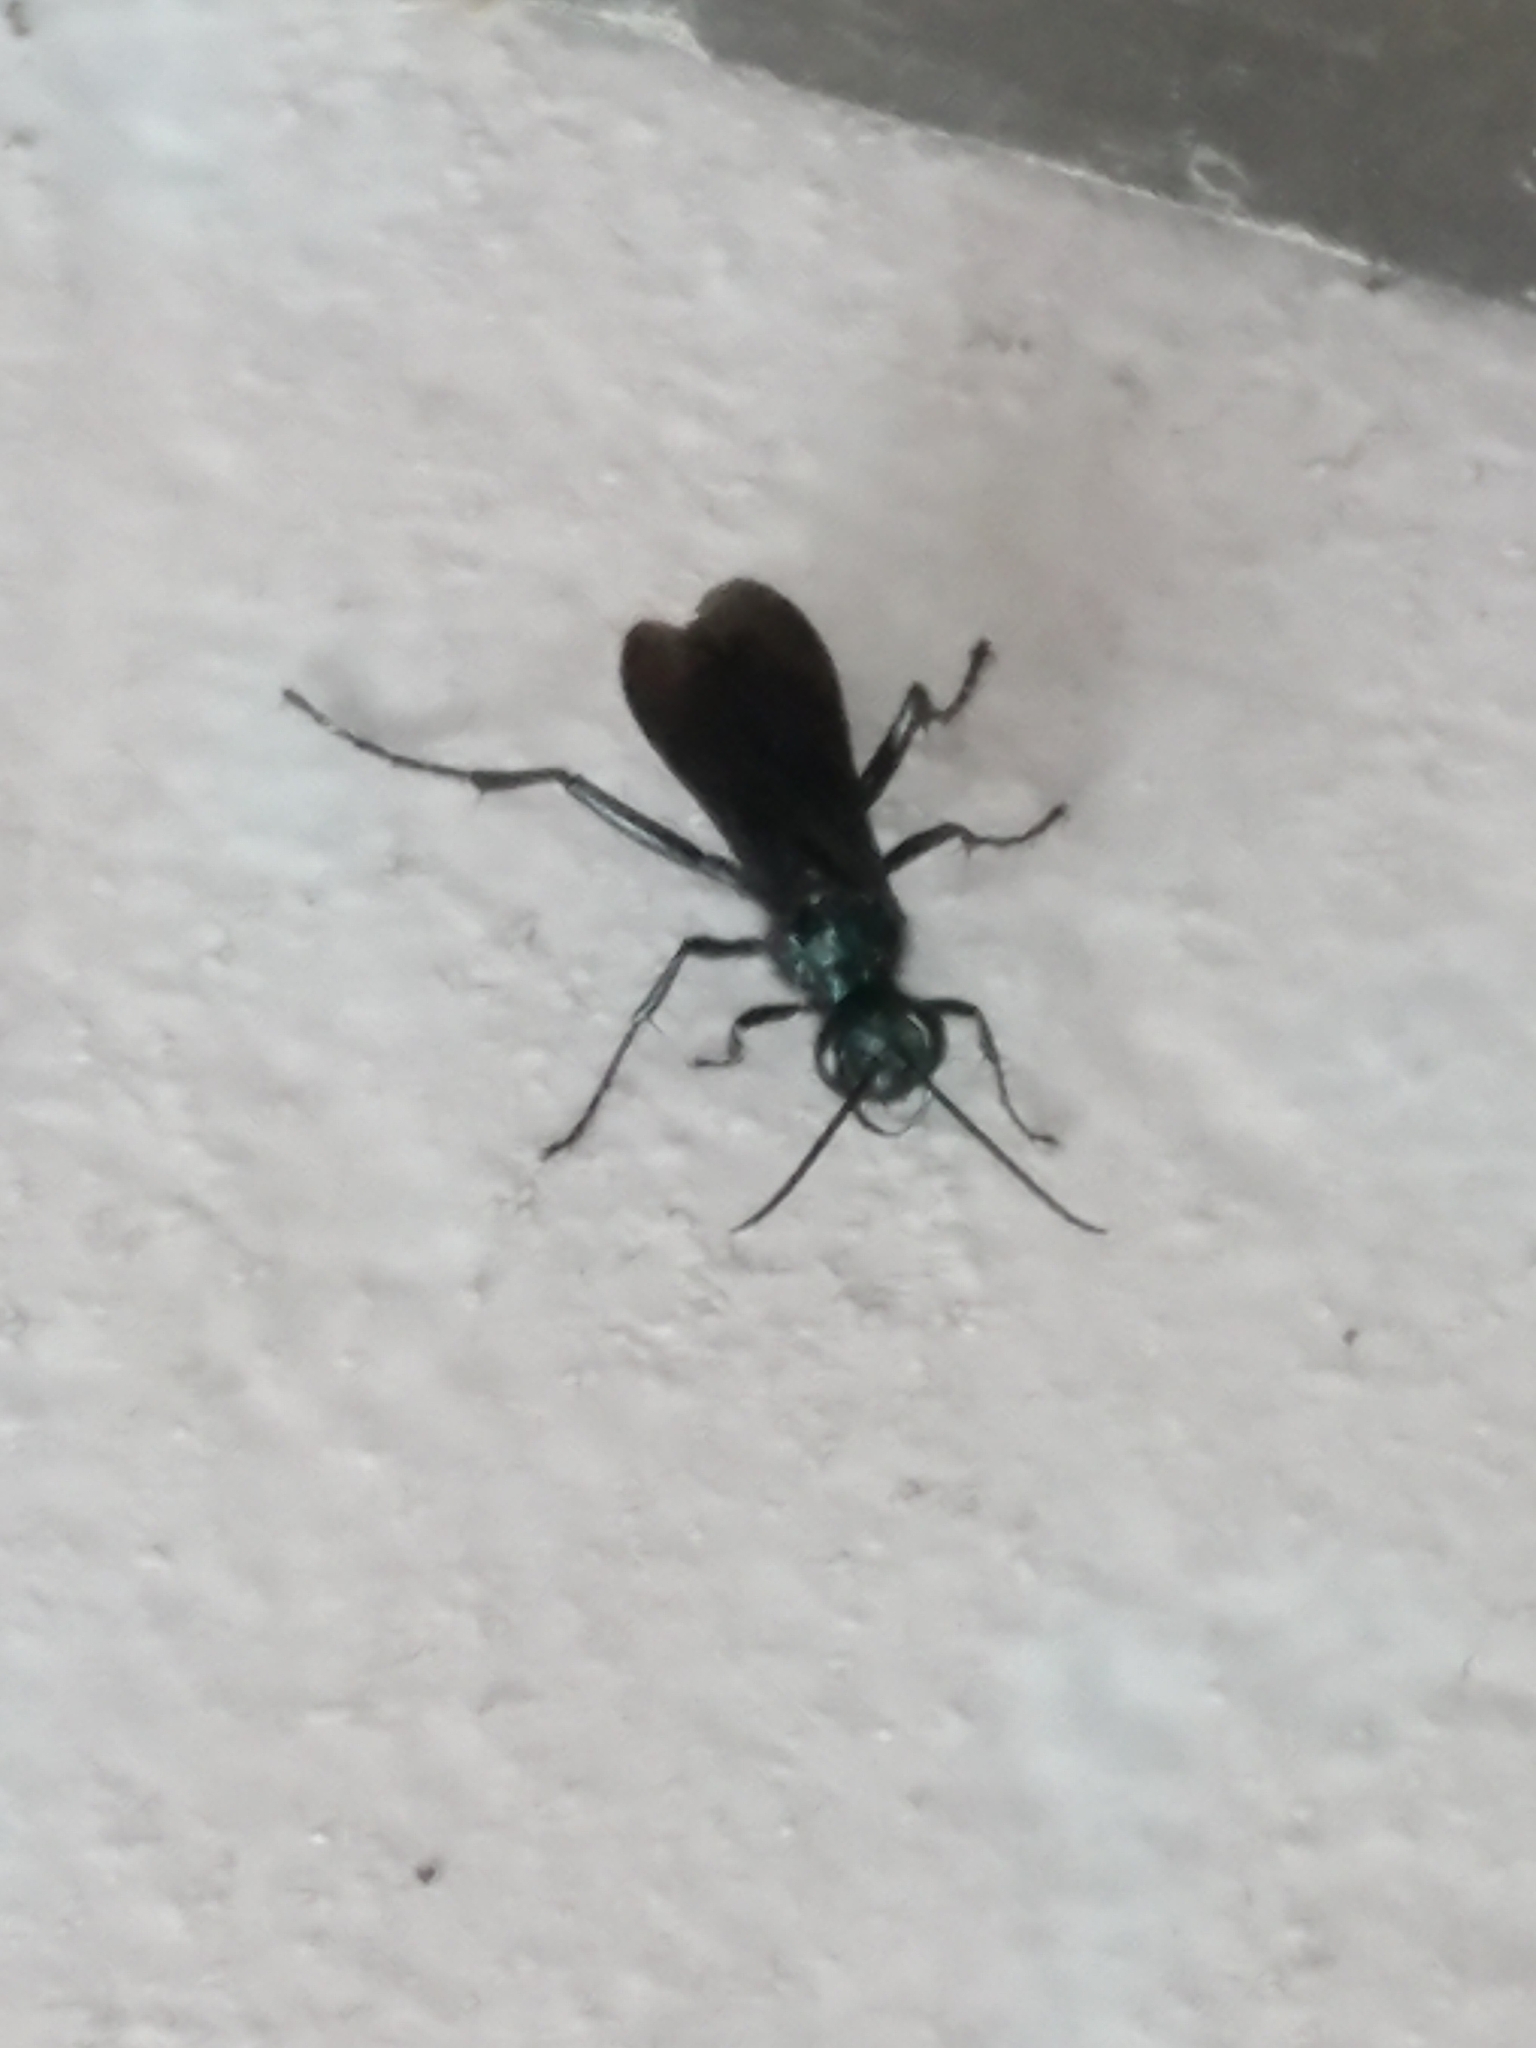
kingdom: Animalia
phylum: Arthropoda
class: Insecta
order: Hymenoptera
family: Sphecidae
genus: Chalybion
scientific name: Chalybion californicum
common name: Mud dauber
